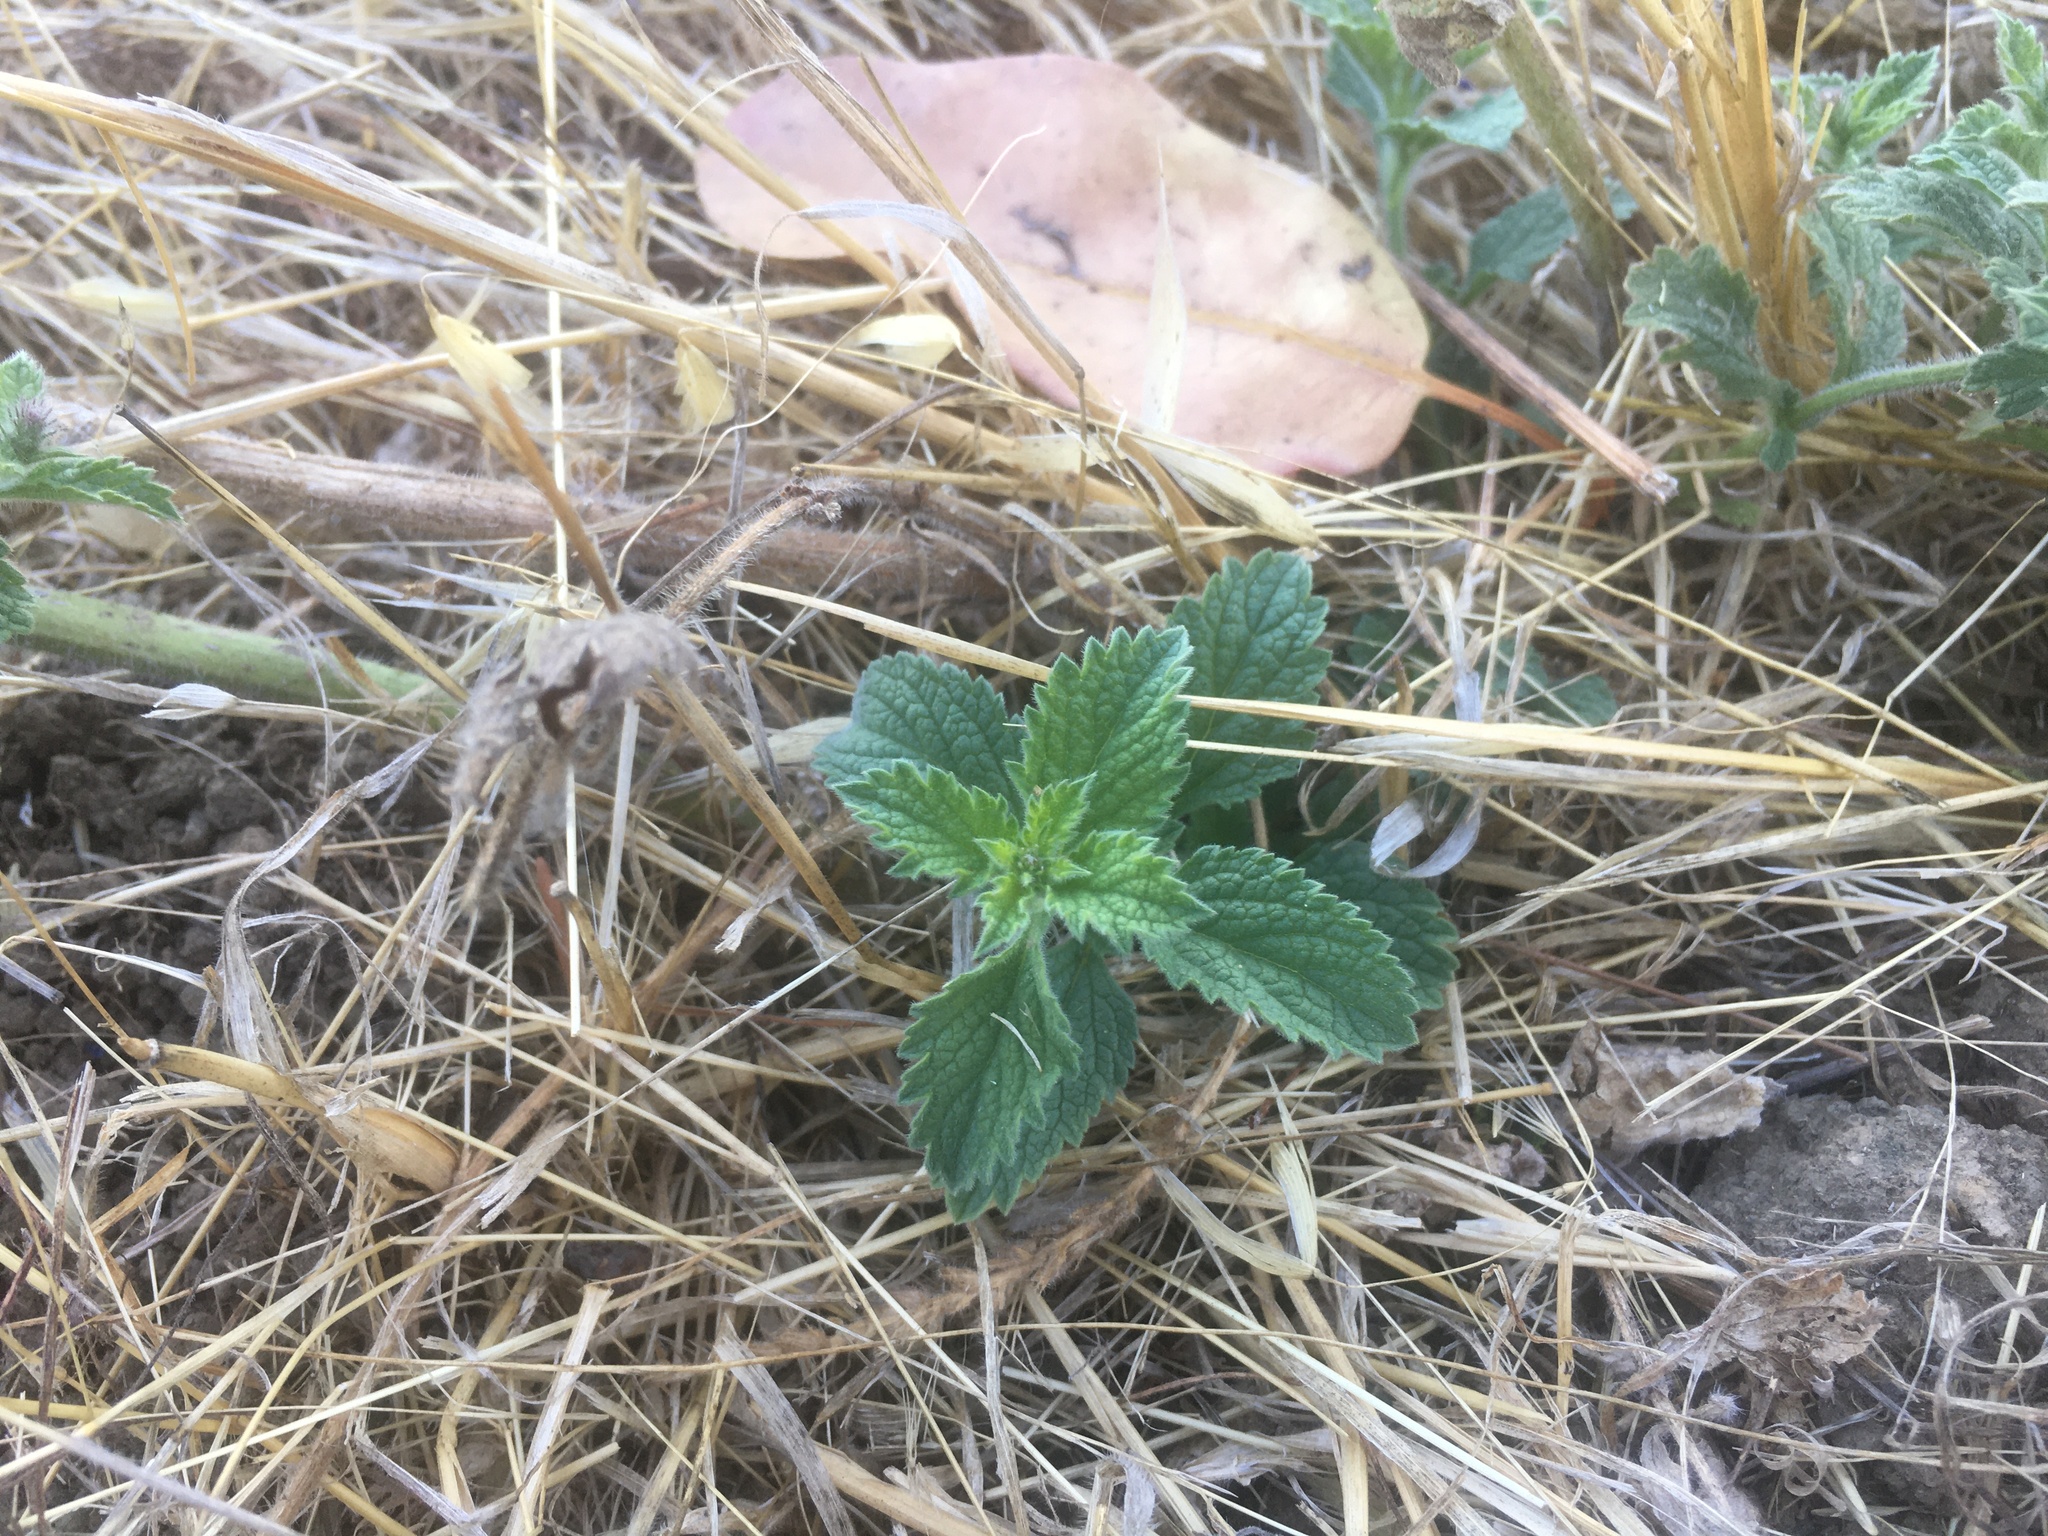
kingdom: Plantae
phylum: Tracheophyta
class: Magnoliopsida
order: Lamiales
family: Verbenaceae
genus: Verbena
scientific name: Verbena lasiostachys
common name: Vervain
